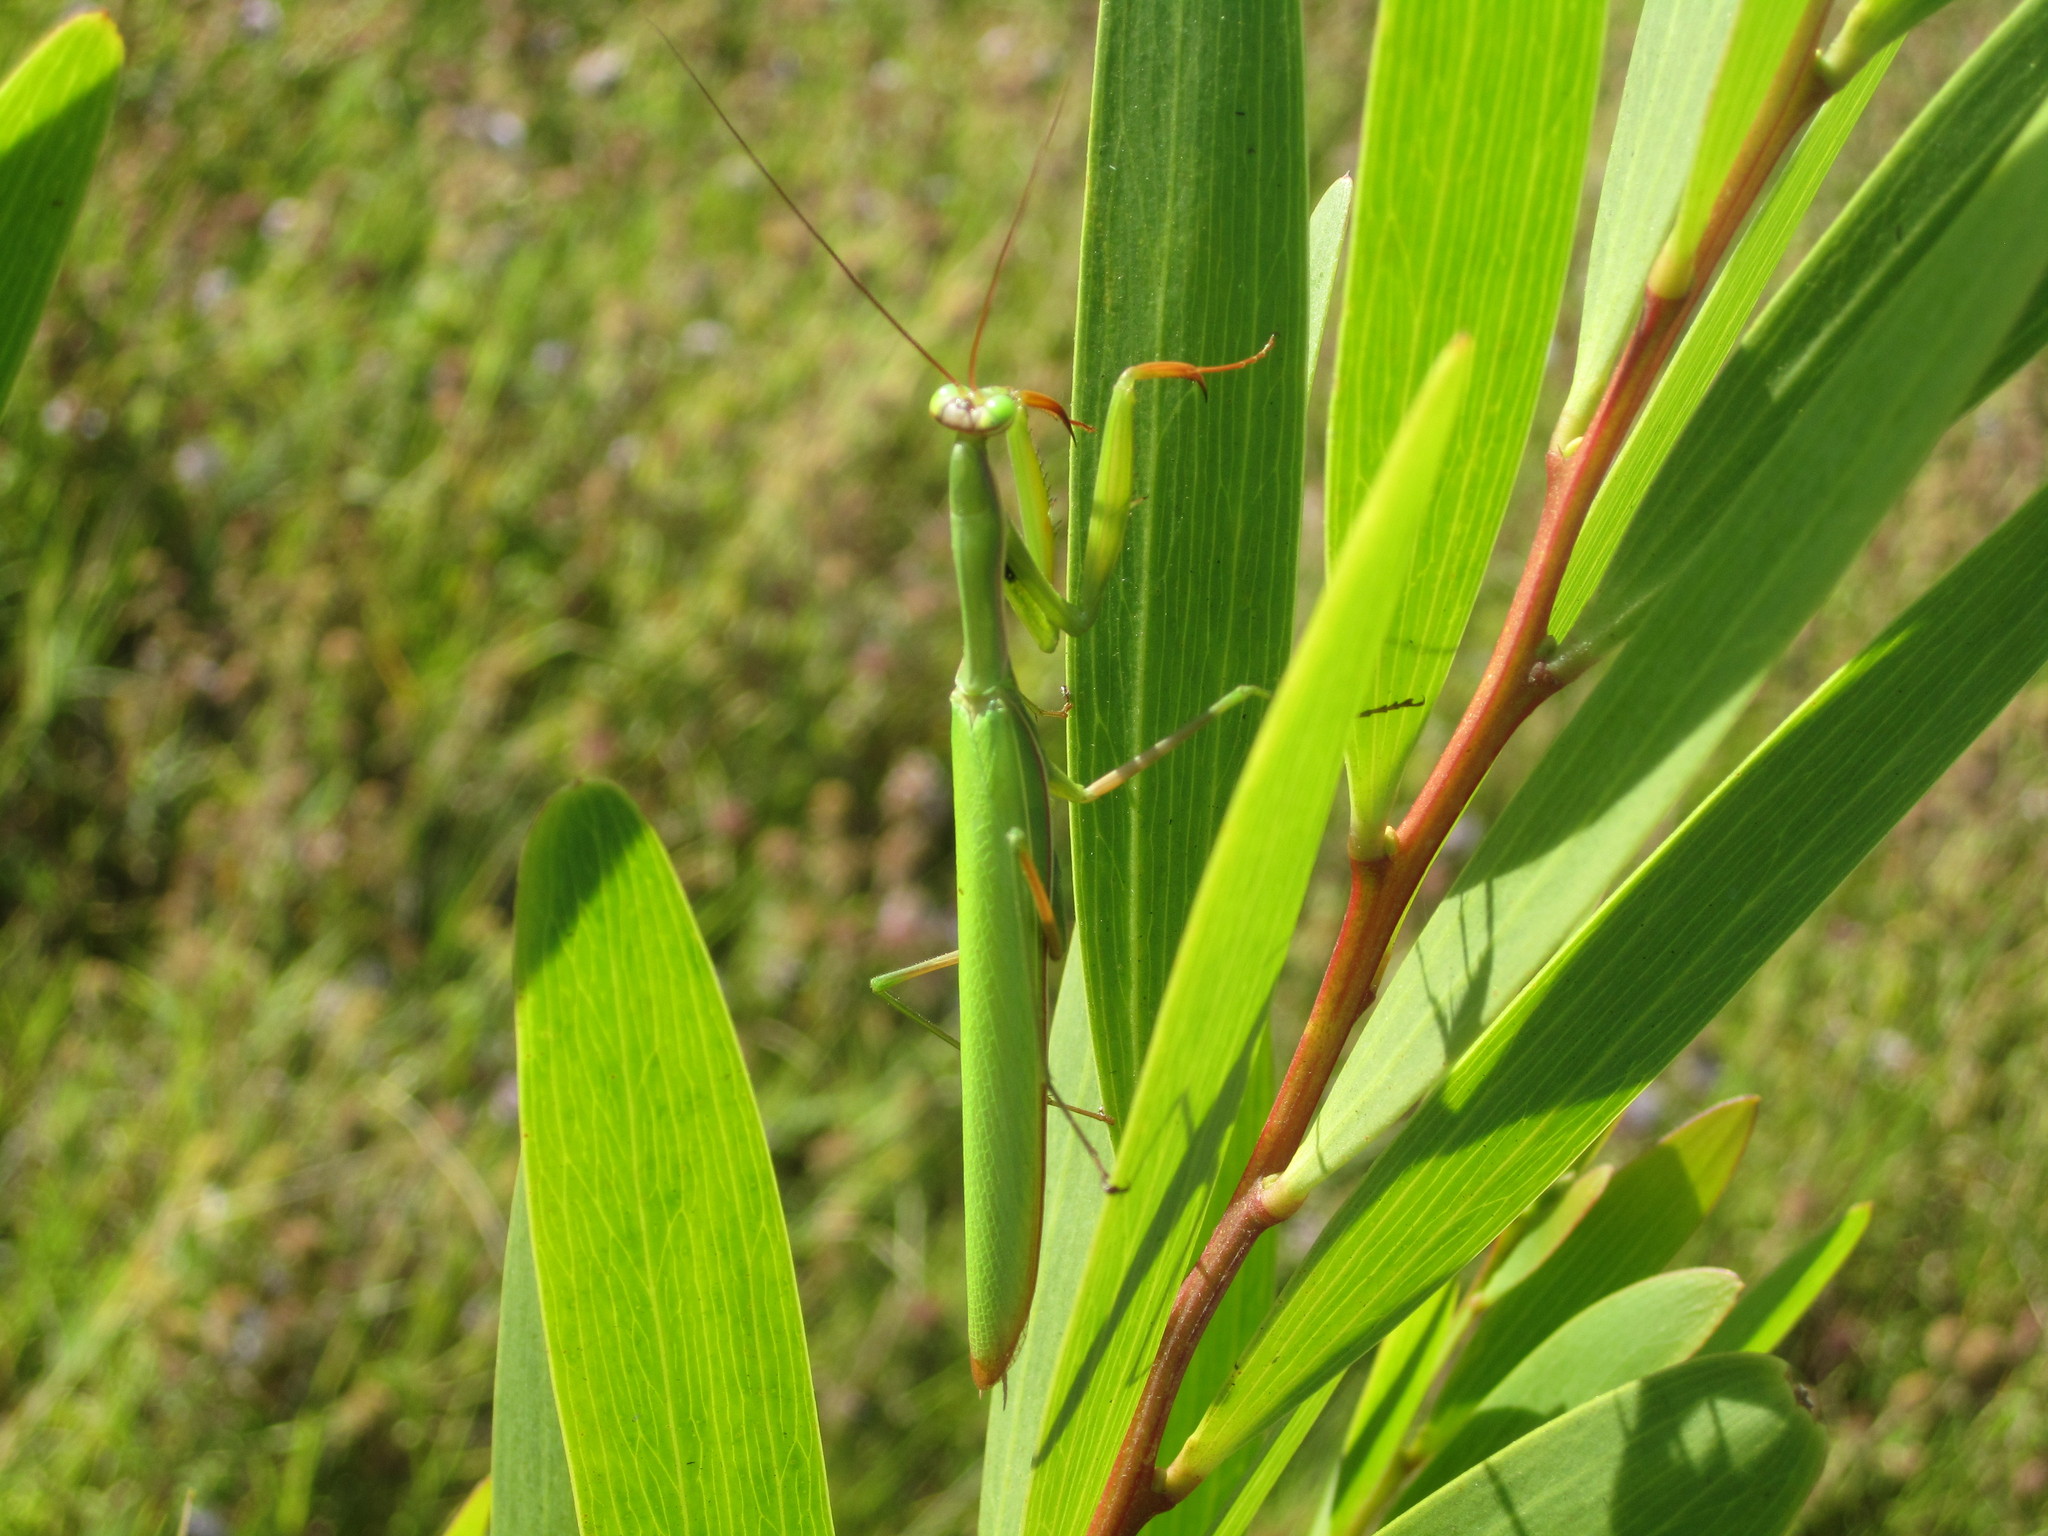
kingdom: Animalia
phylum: Arthropoda
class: Insecta
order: Mantodea
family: Mantidae
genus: Mantis
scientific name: Mantis religiosa
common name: Praying mantis
